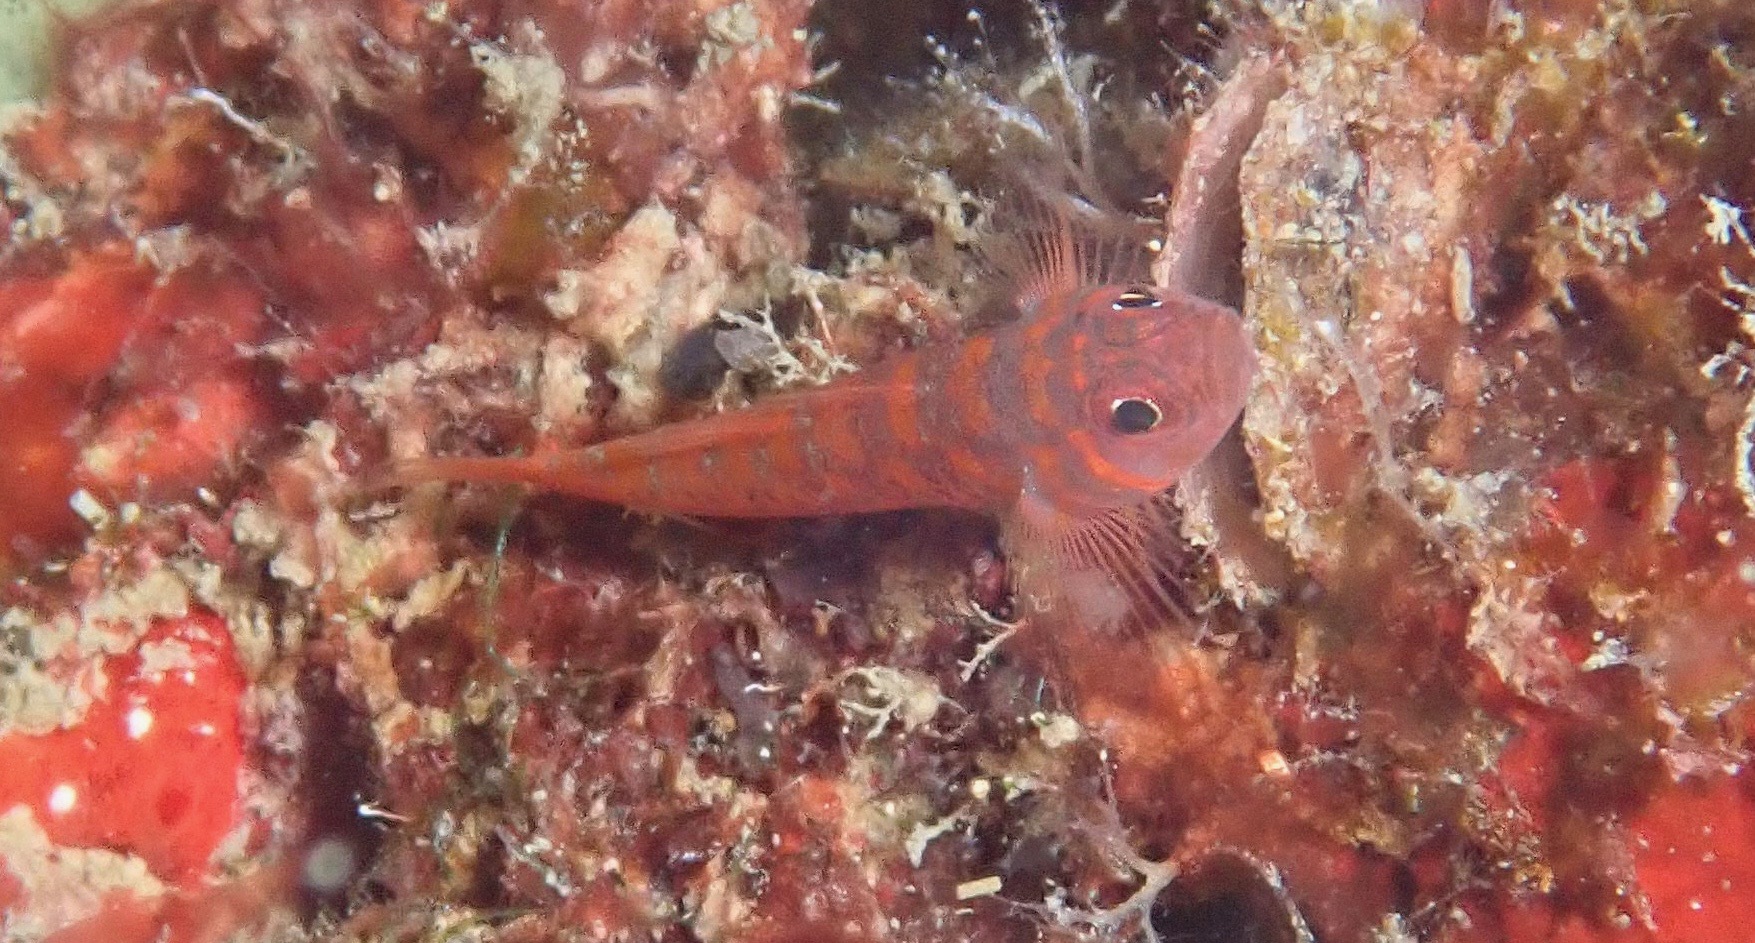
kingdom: Animalia
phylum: Chordata
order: Perciformes
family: Gobiidae
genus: Trimma
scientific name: Trimma fucatum
